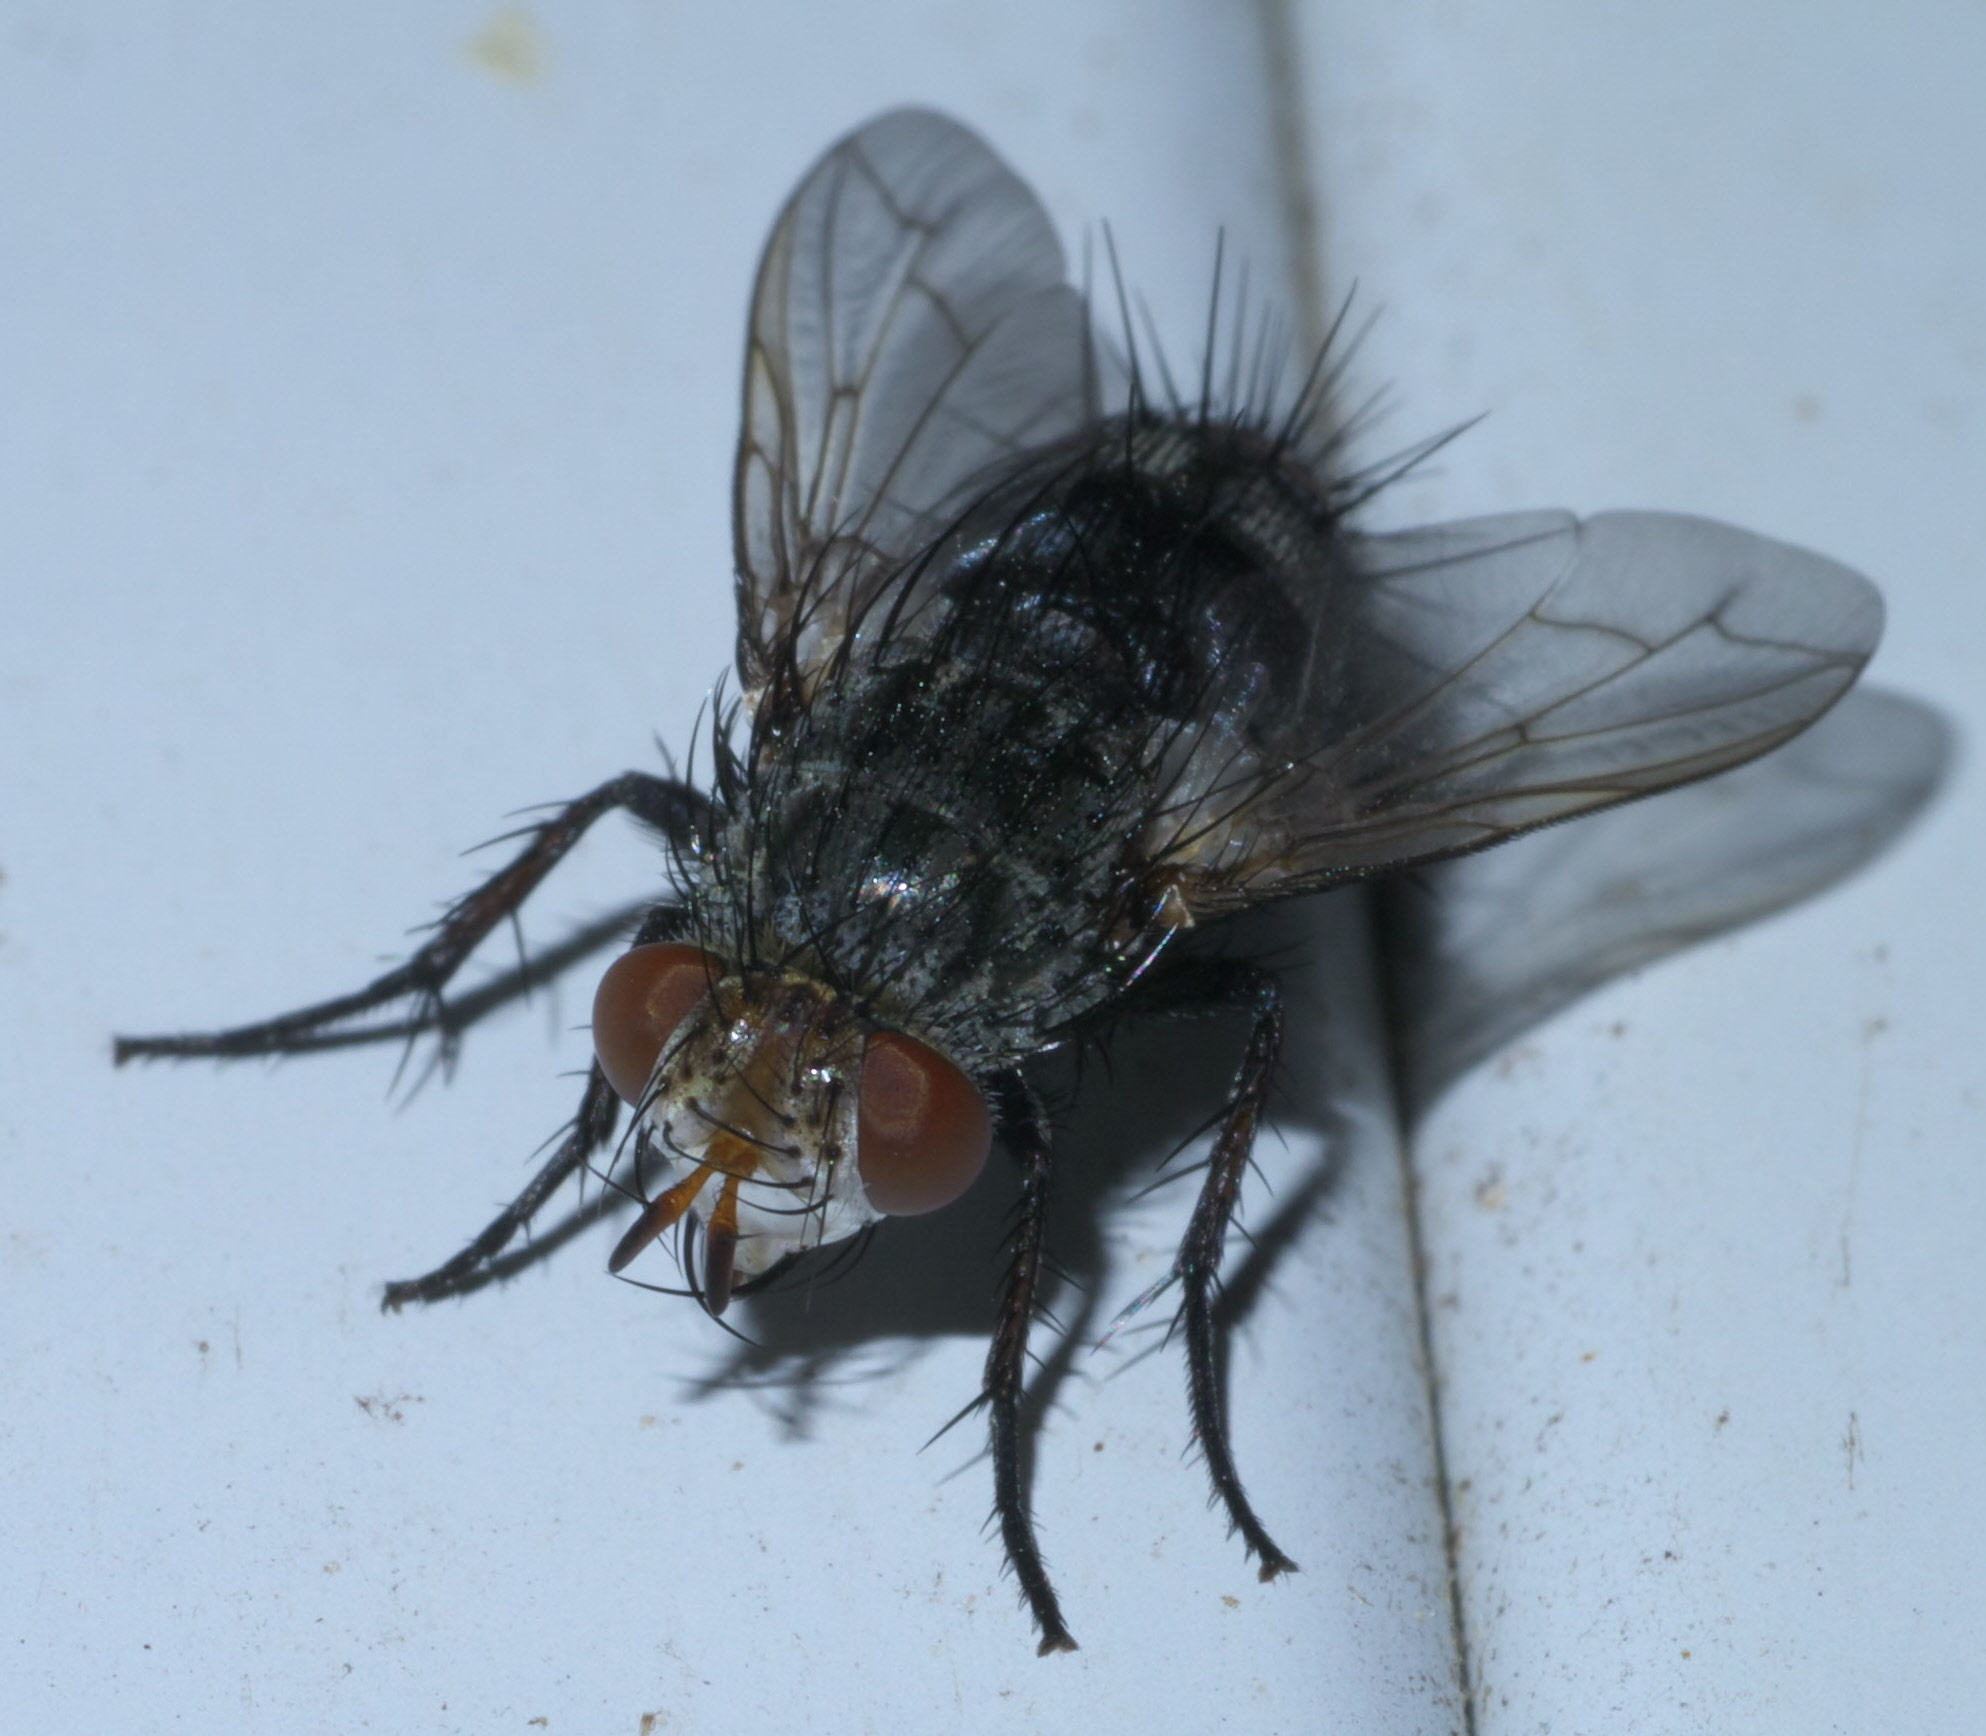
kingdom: Animalia
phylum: Arthropoda
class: Insecta
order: Diptera
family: Tachinidae
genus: Peleteria
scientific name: Peleteria anaxias
